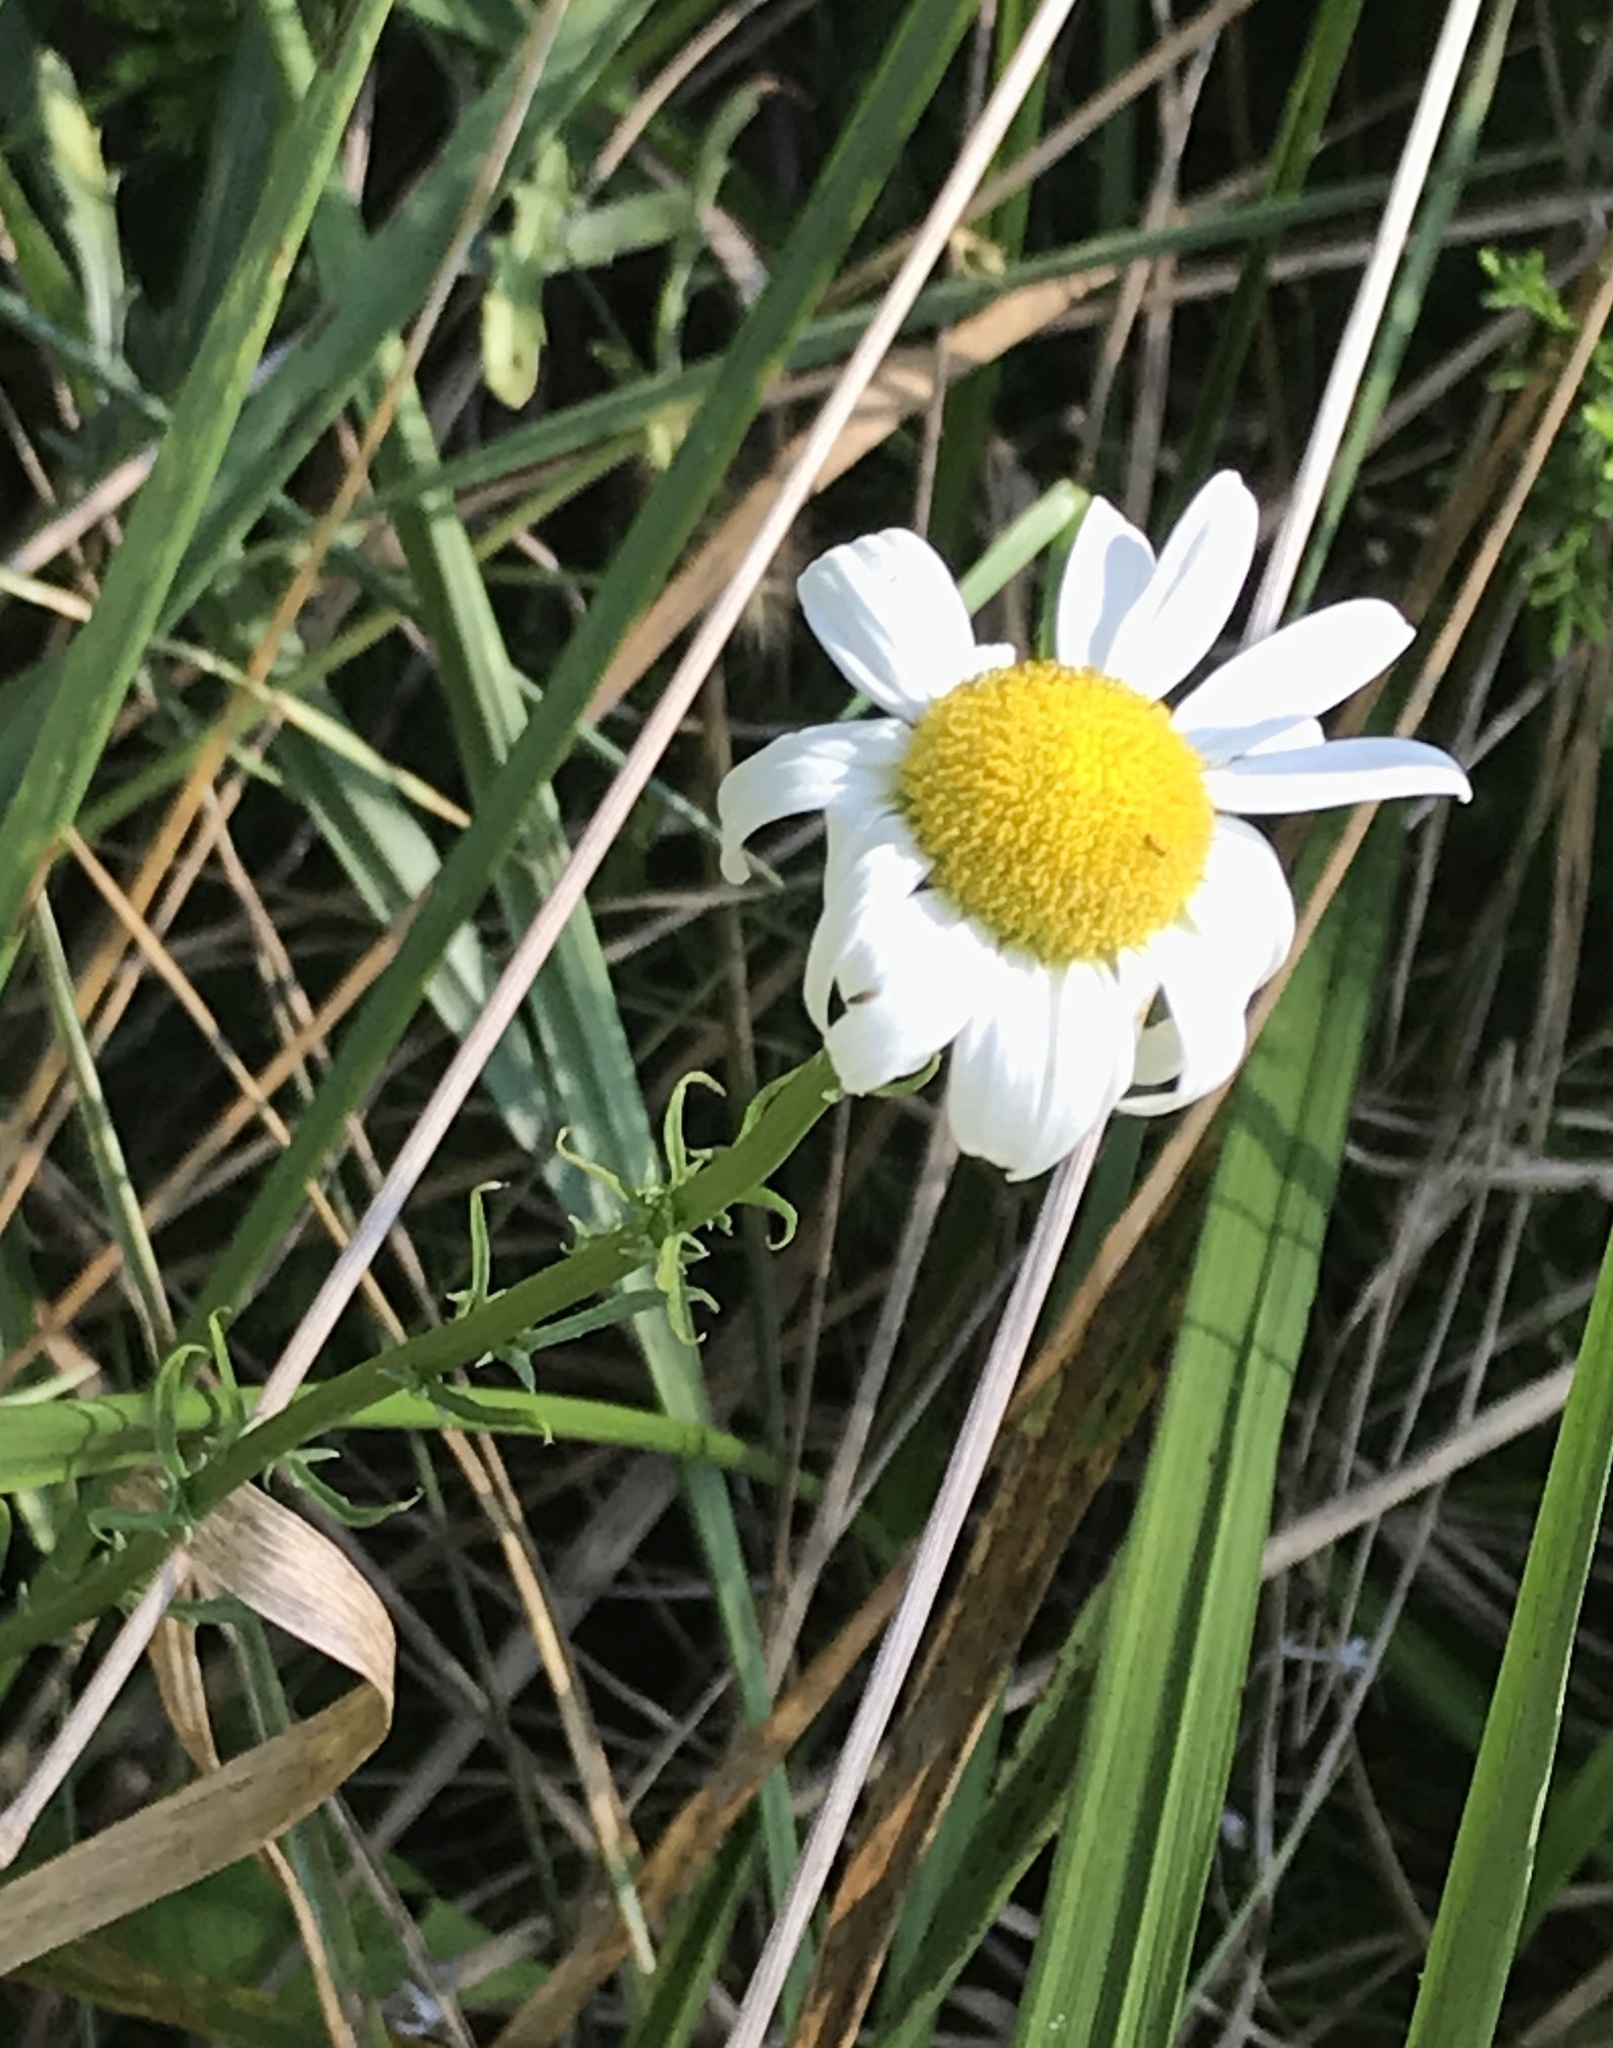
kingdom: Plantae
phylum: Tracheophyta
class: Magnoliopsida
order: Asterales
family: Asteraceae
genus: Leucanthemum
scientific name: Leucanthemum vulgare
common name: Oxeye daisy
